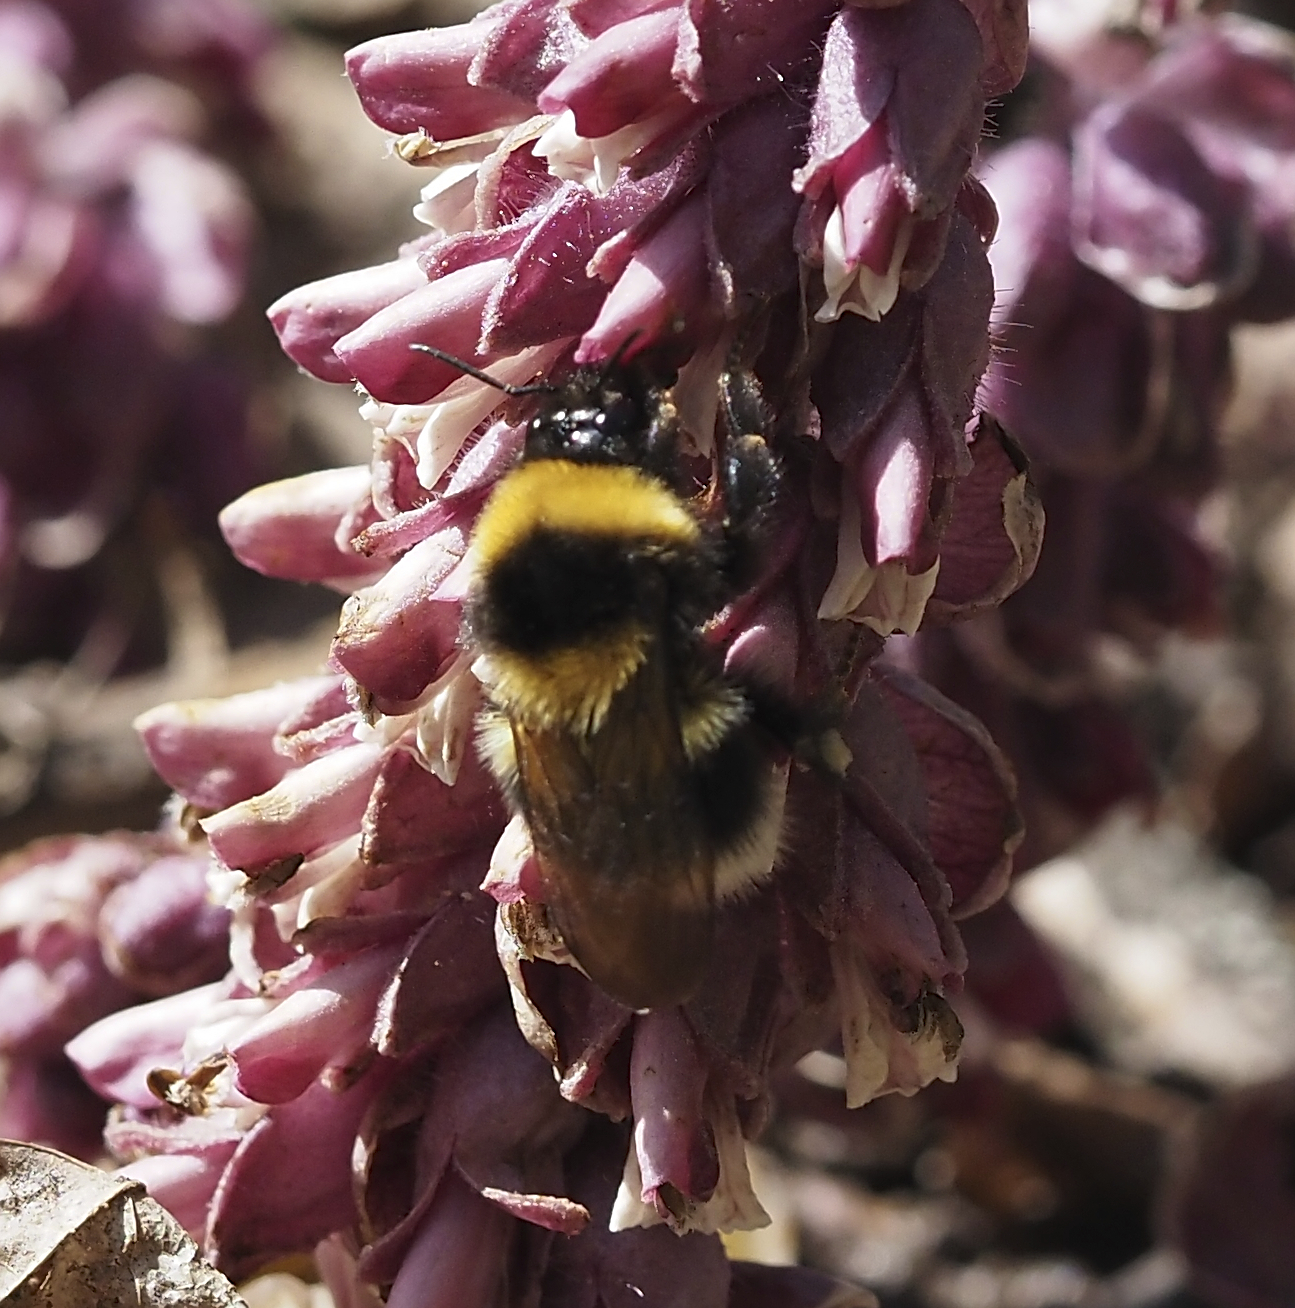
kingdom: Animalia
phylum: Arthropoda
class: Insecta
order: Hymenoptera
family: Apidae
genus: Bombus
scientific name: Bombus hortorum
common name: Garden bumblebee
